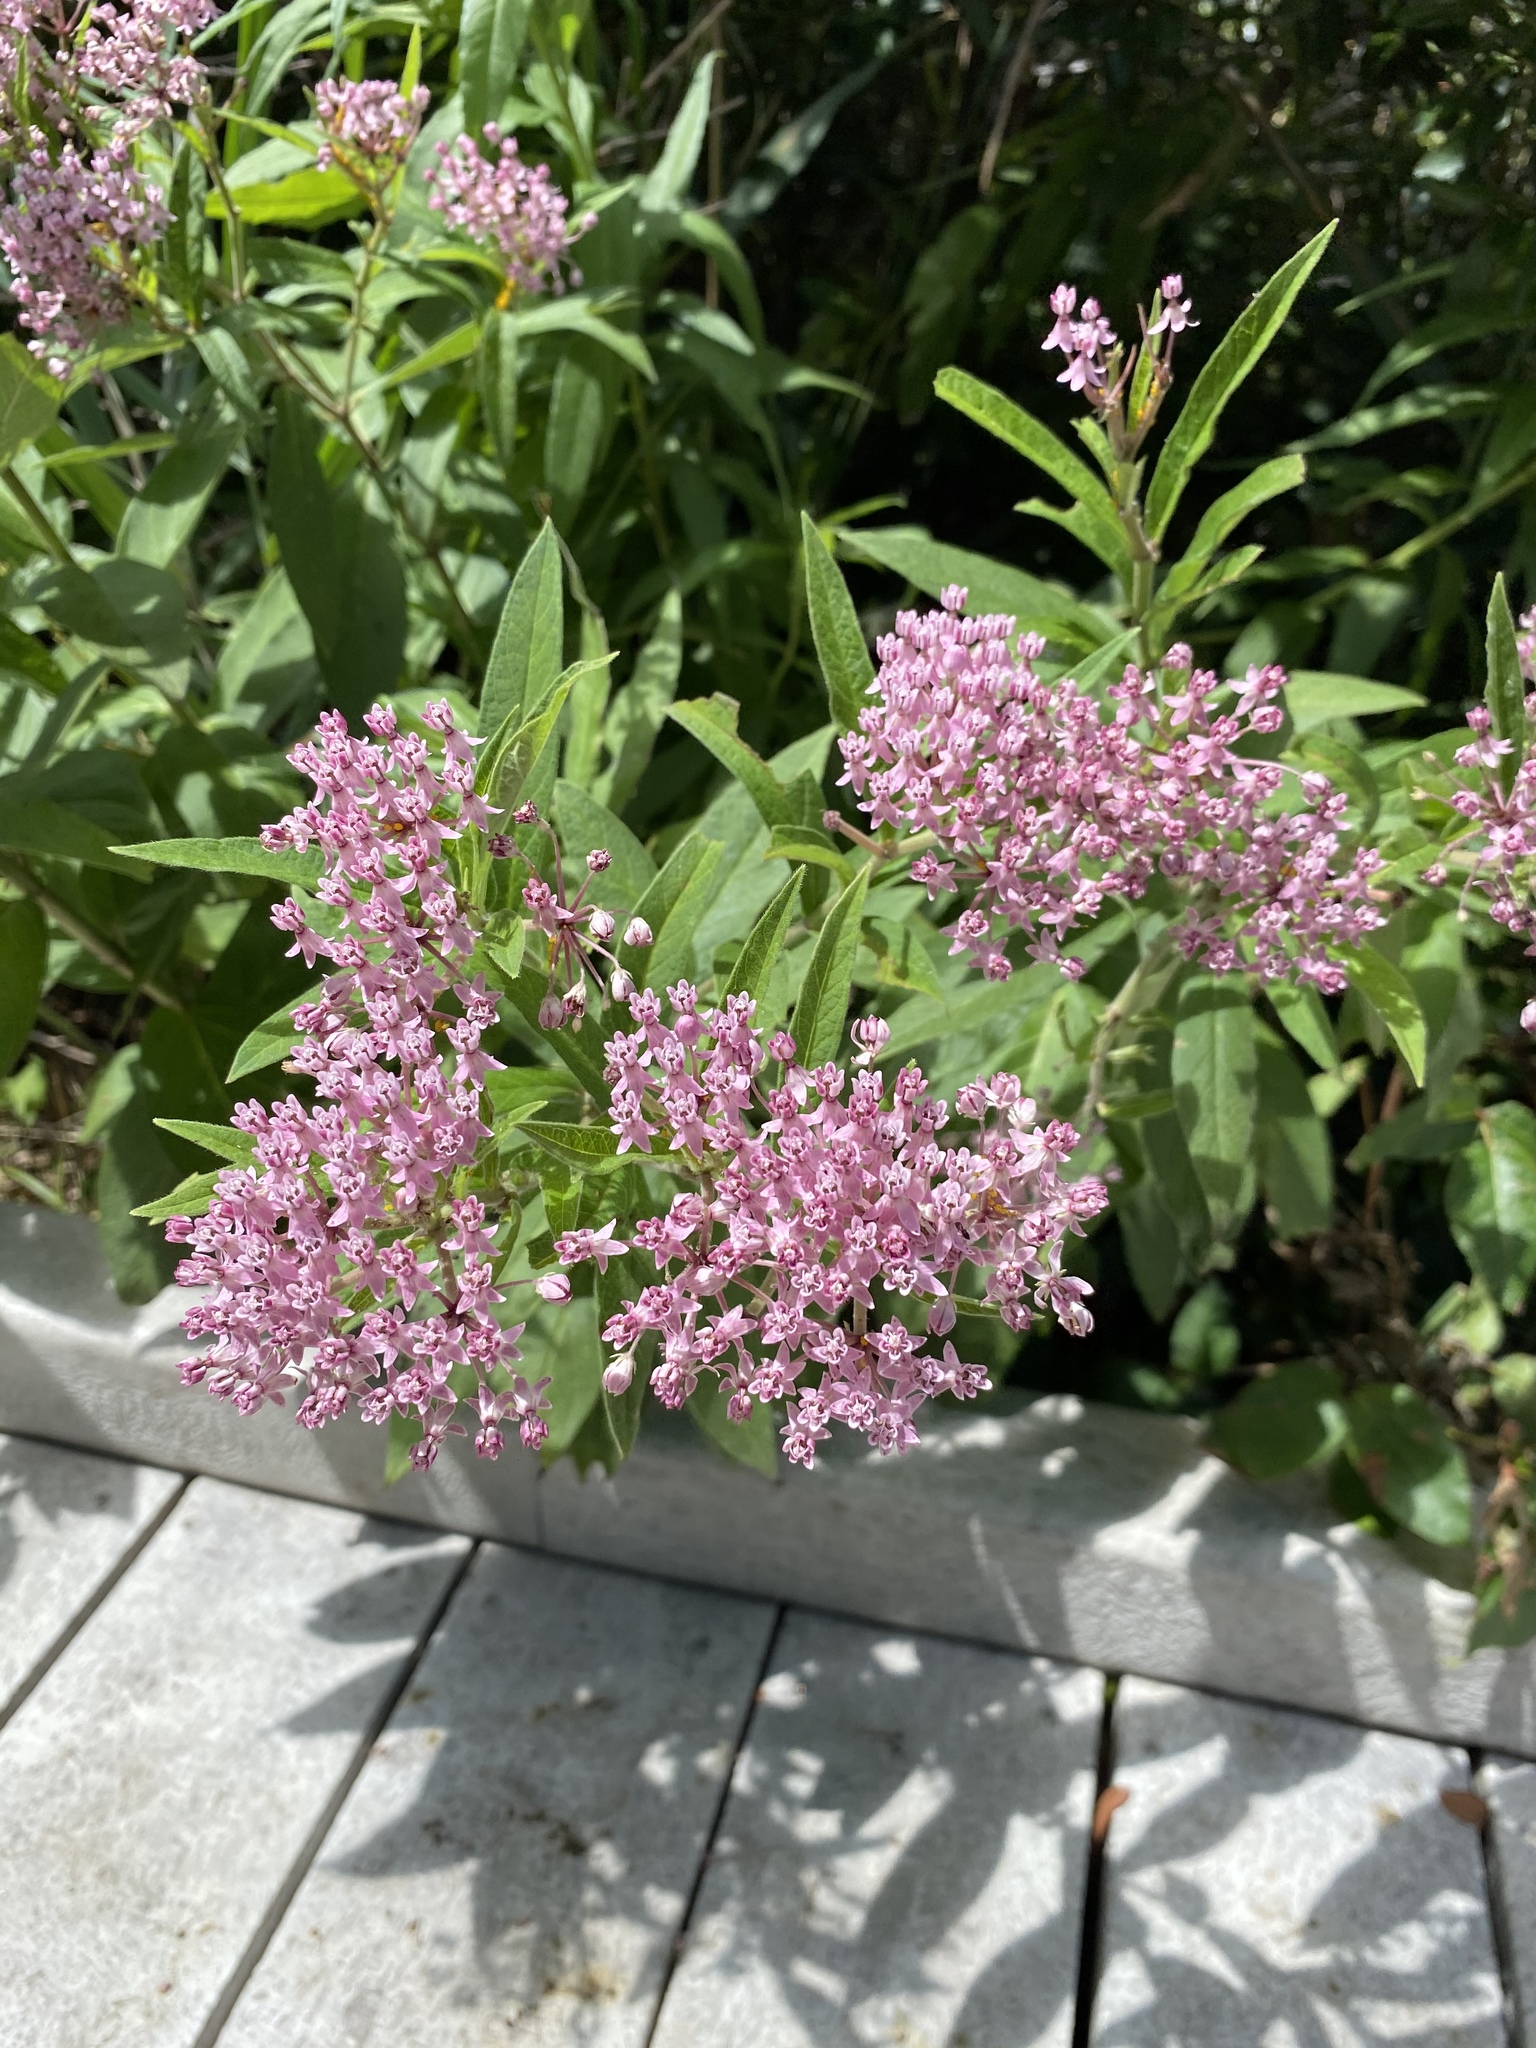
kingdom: Plantae
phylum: Tracheophyta
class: Magnoliopsida
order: Gentianales
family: Apocynaceae
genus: Asclepias
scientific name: Asclepias incarnata
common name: Swamp milkweed
